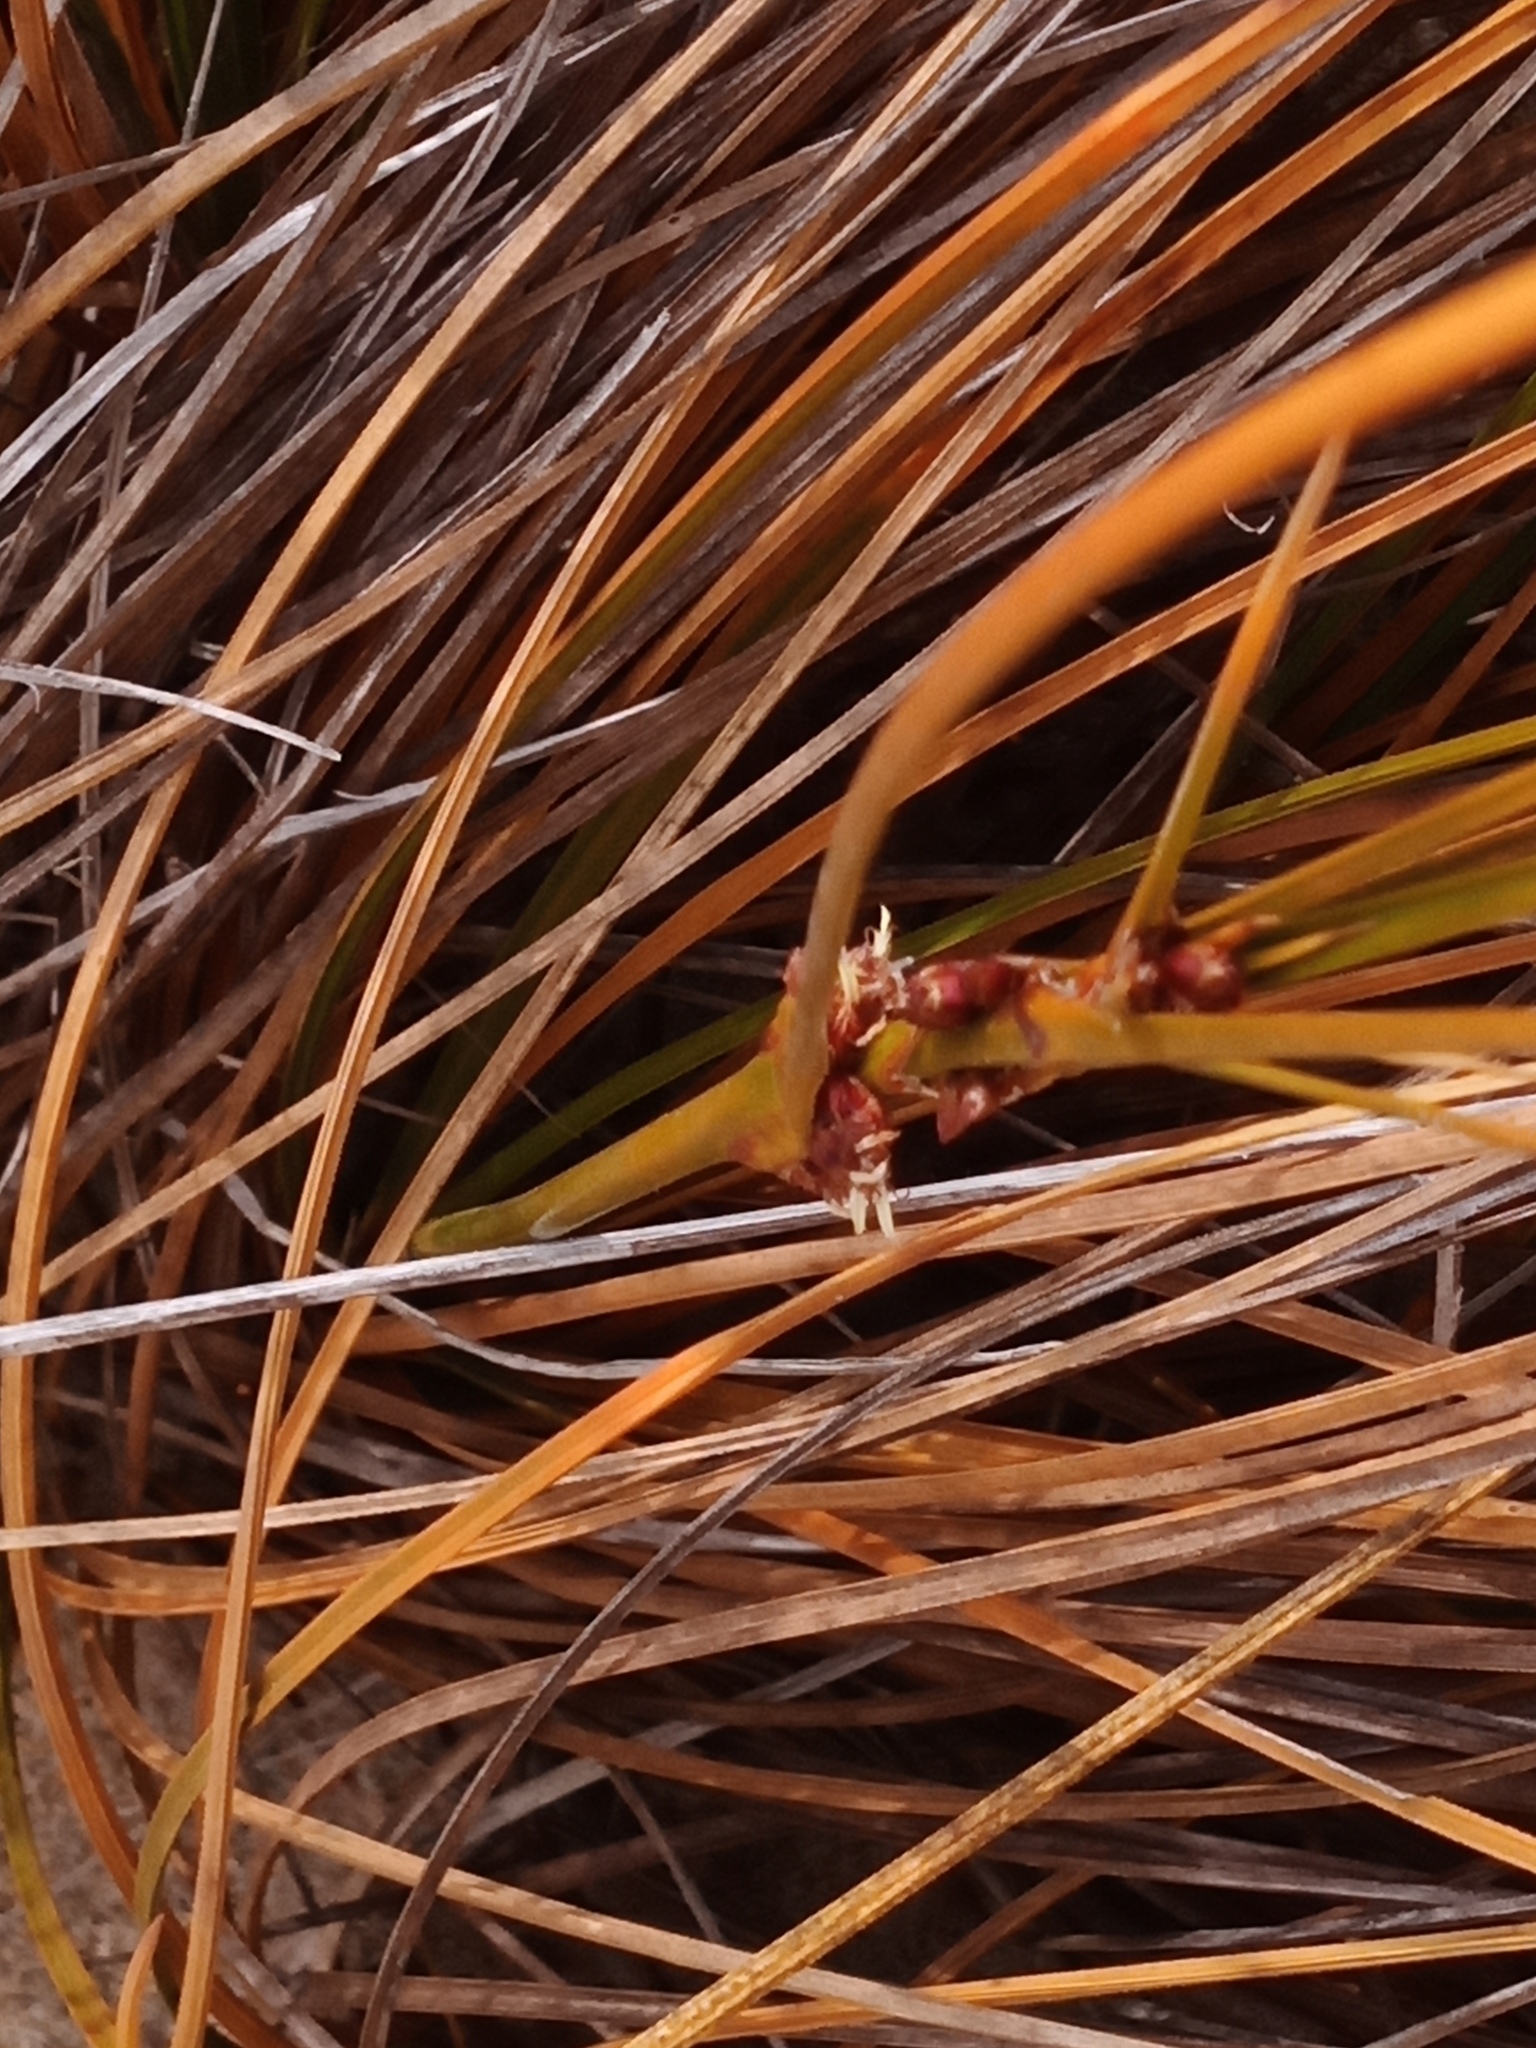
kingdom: Plantae
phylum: Tracheophyta
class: Liliopsida
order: Poales
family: Cyperaceae
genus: Ficinia
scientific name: Ficinia spiralis
